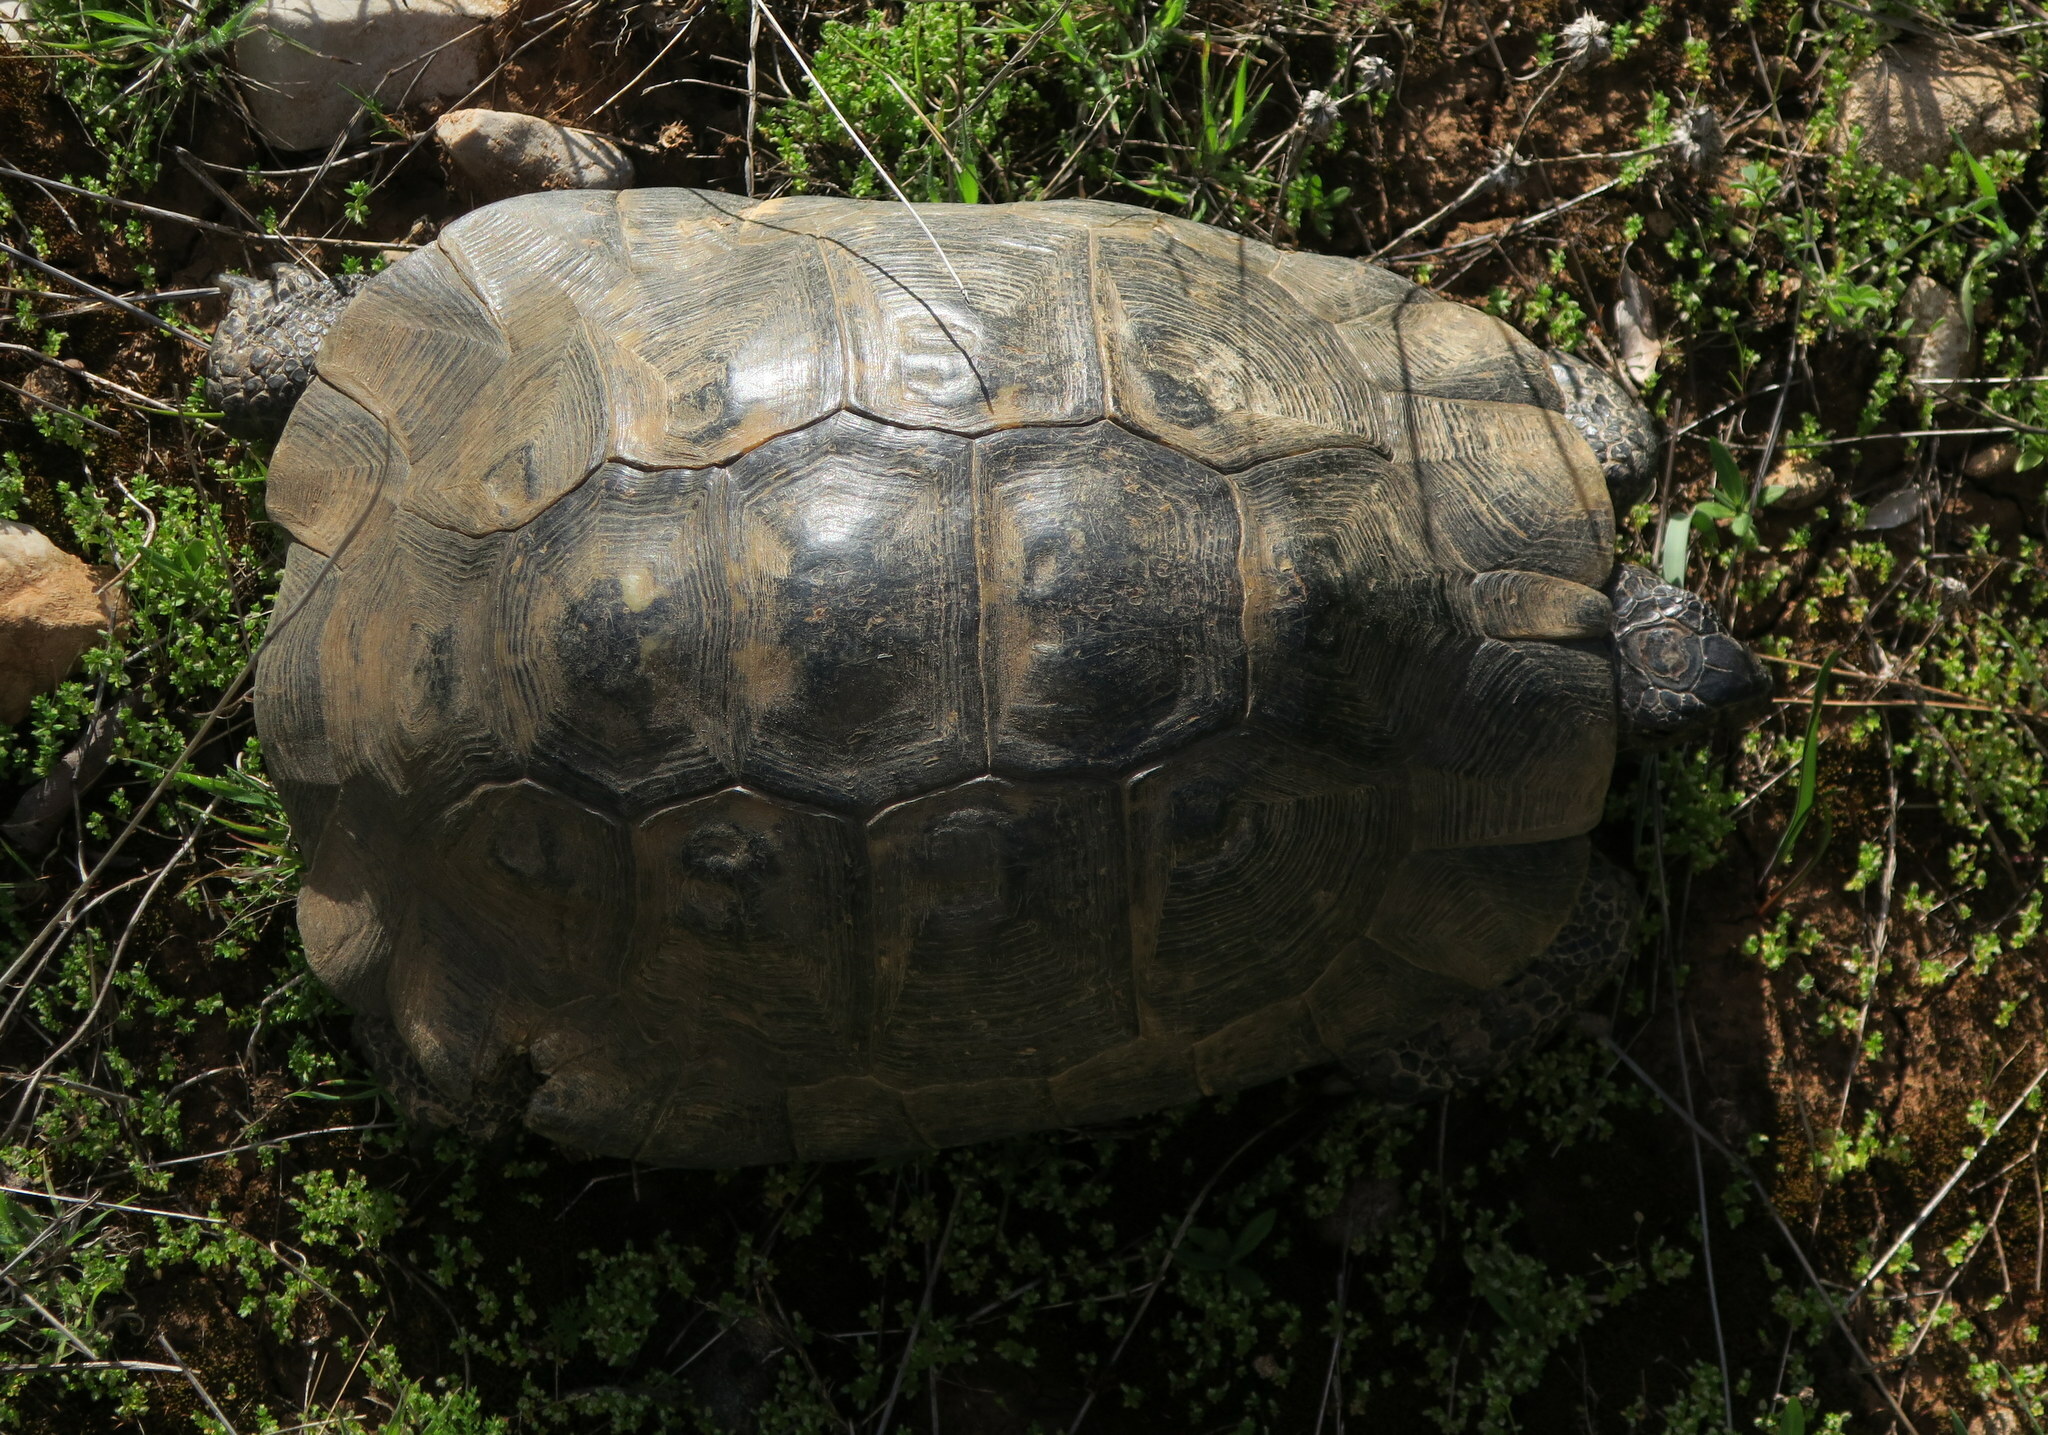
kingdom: Animalia
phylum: Chordata
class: Testudines
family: Testudinidae
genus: Testudo
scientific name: Testudo graeca
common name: Common tortoise
